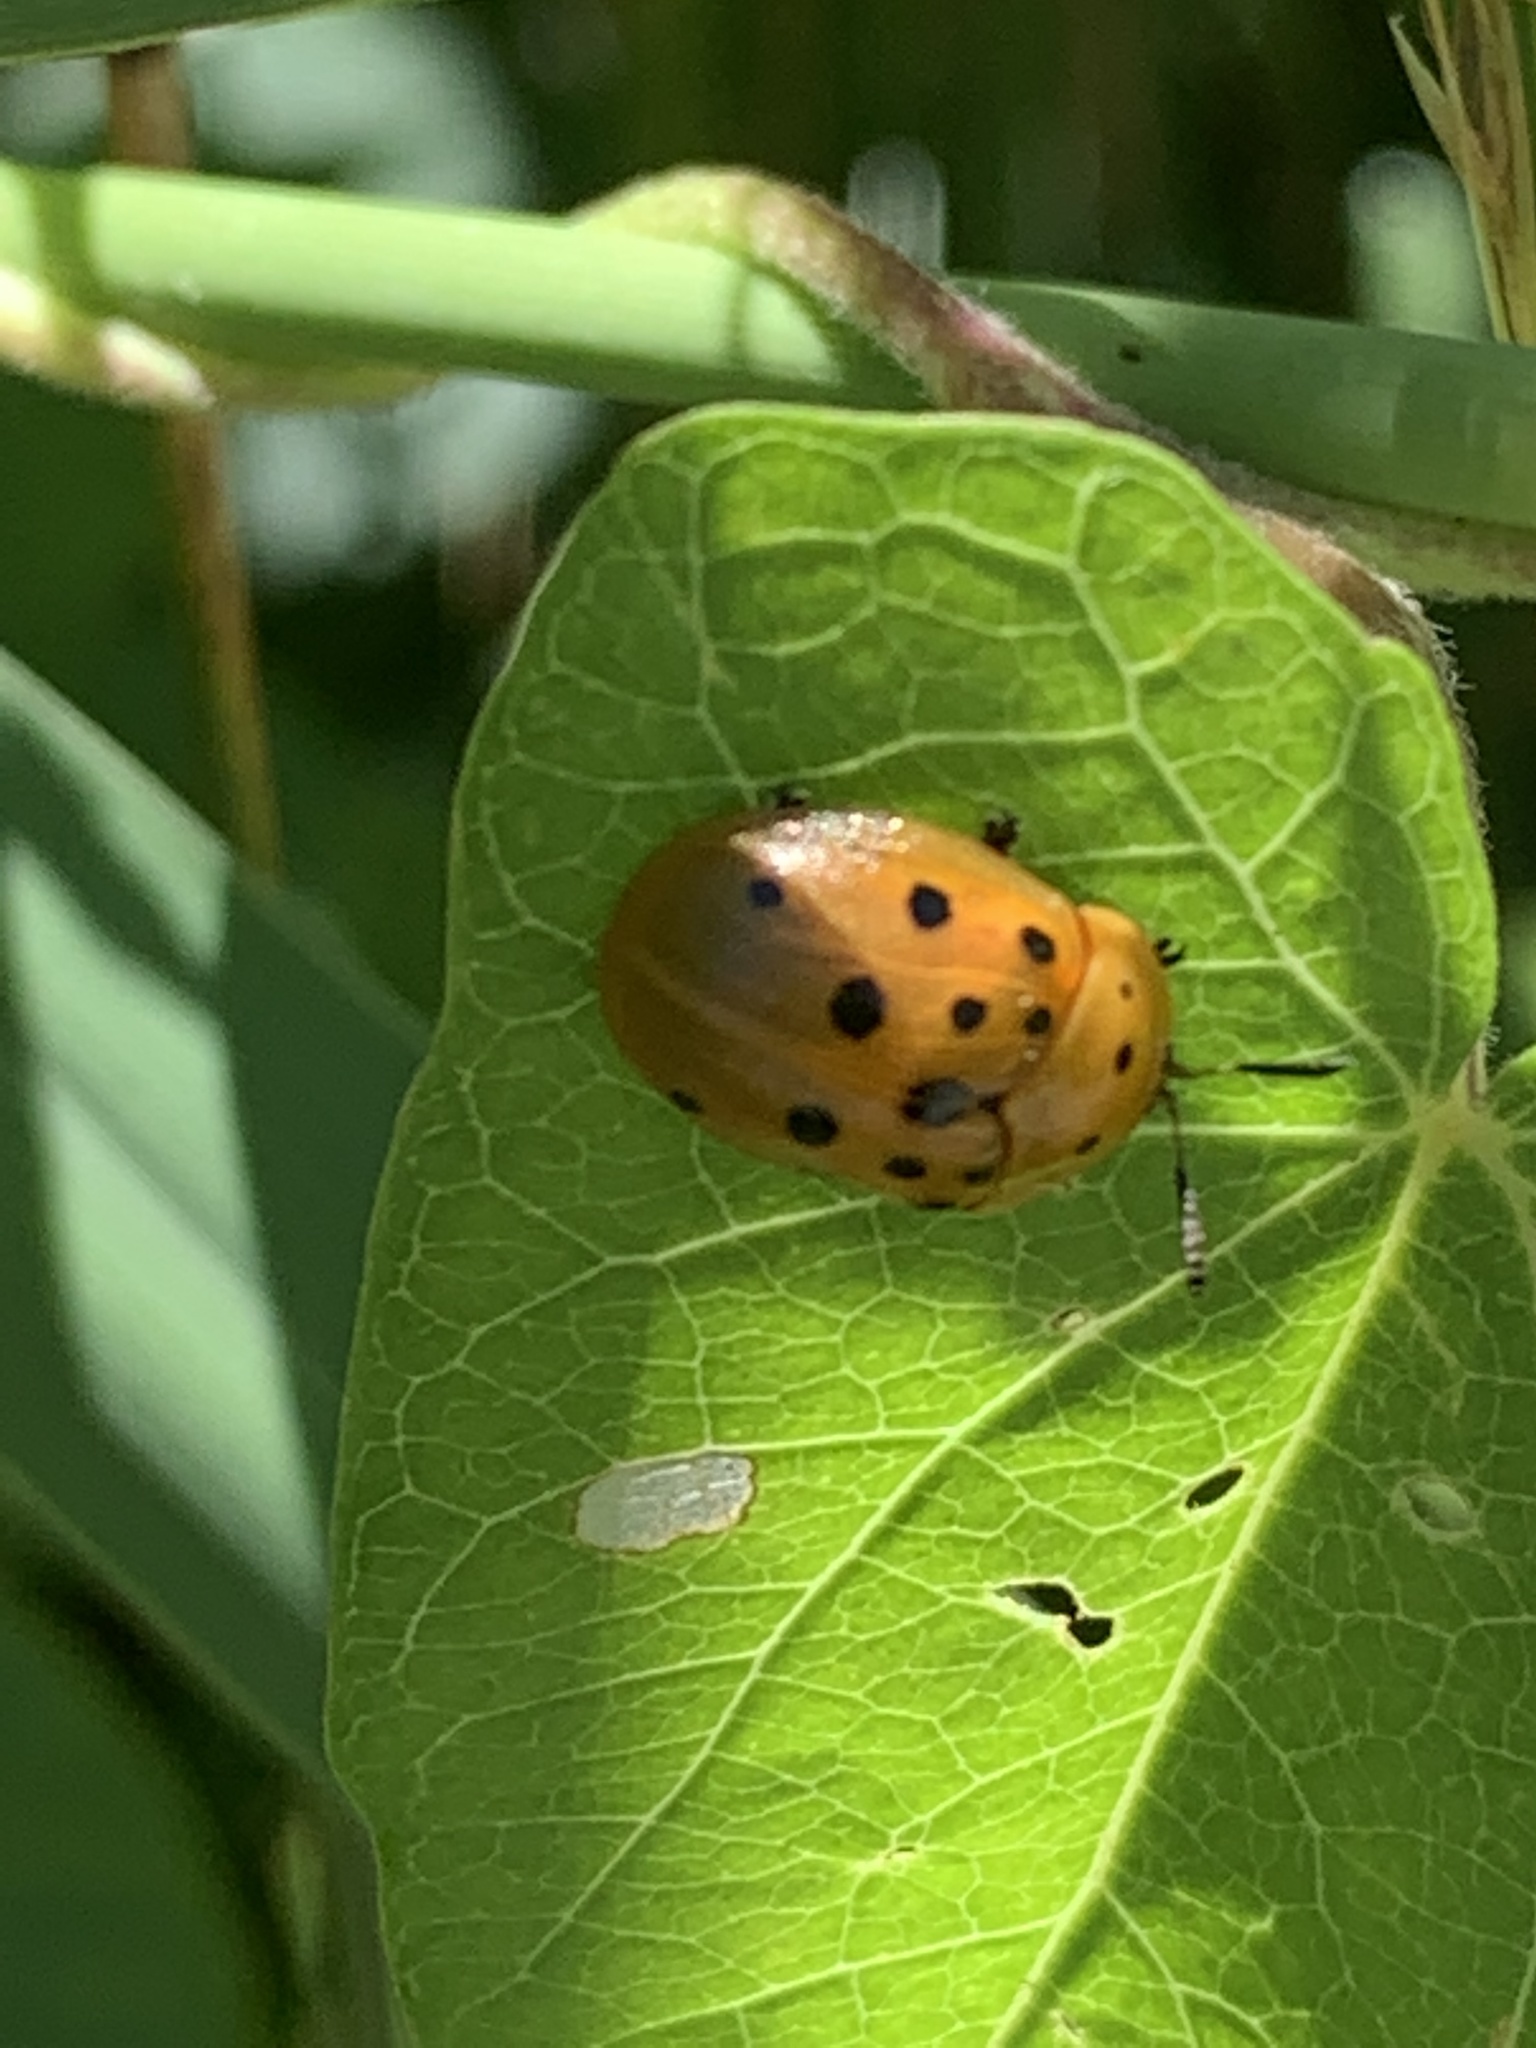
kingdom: Animalia
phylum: Arthropoda
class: Insecta
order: Coleoptera
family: Chrysomelidae
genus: Chelymorpha
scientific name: Chelymorpha cassidea
